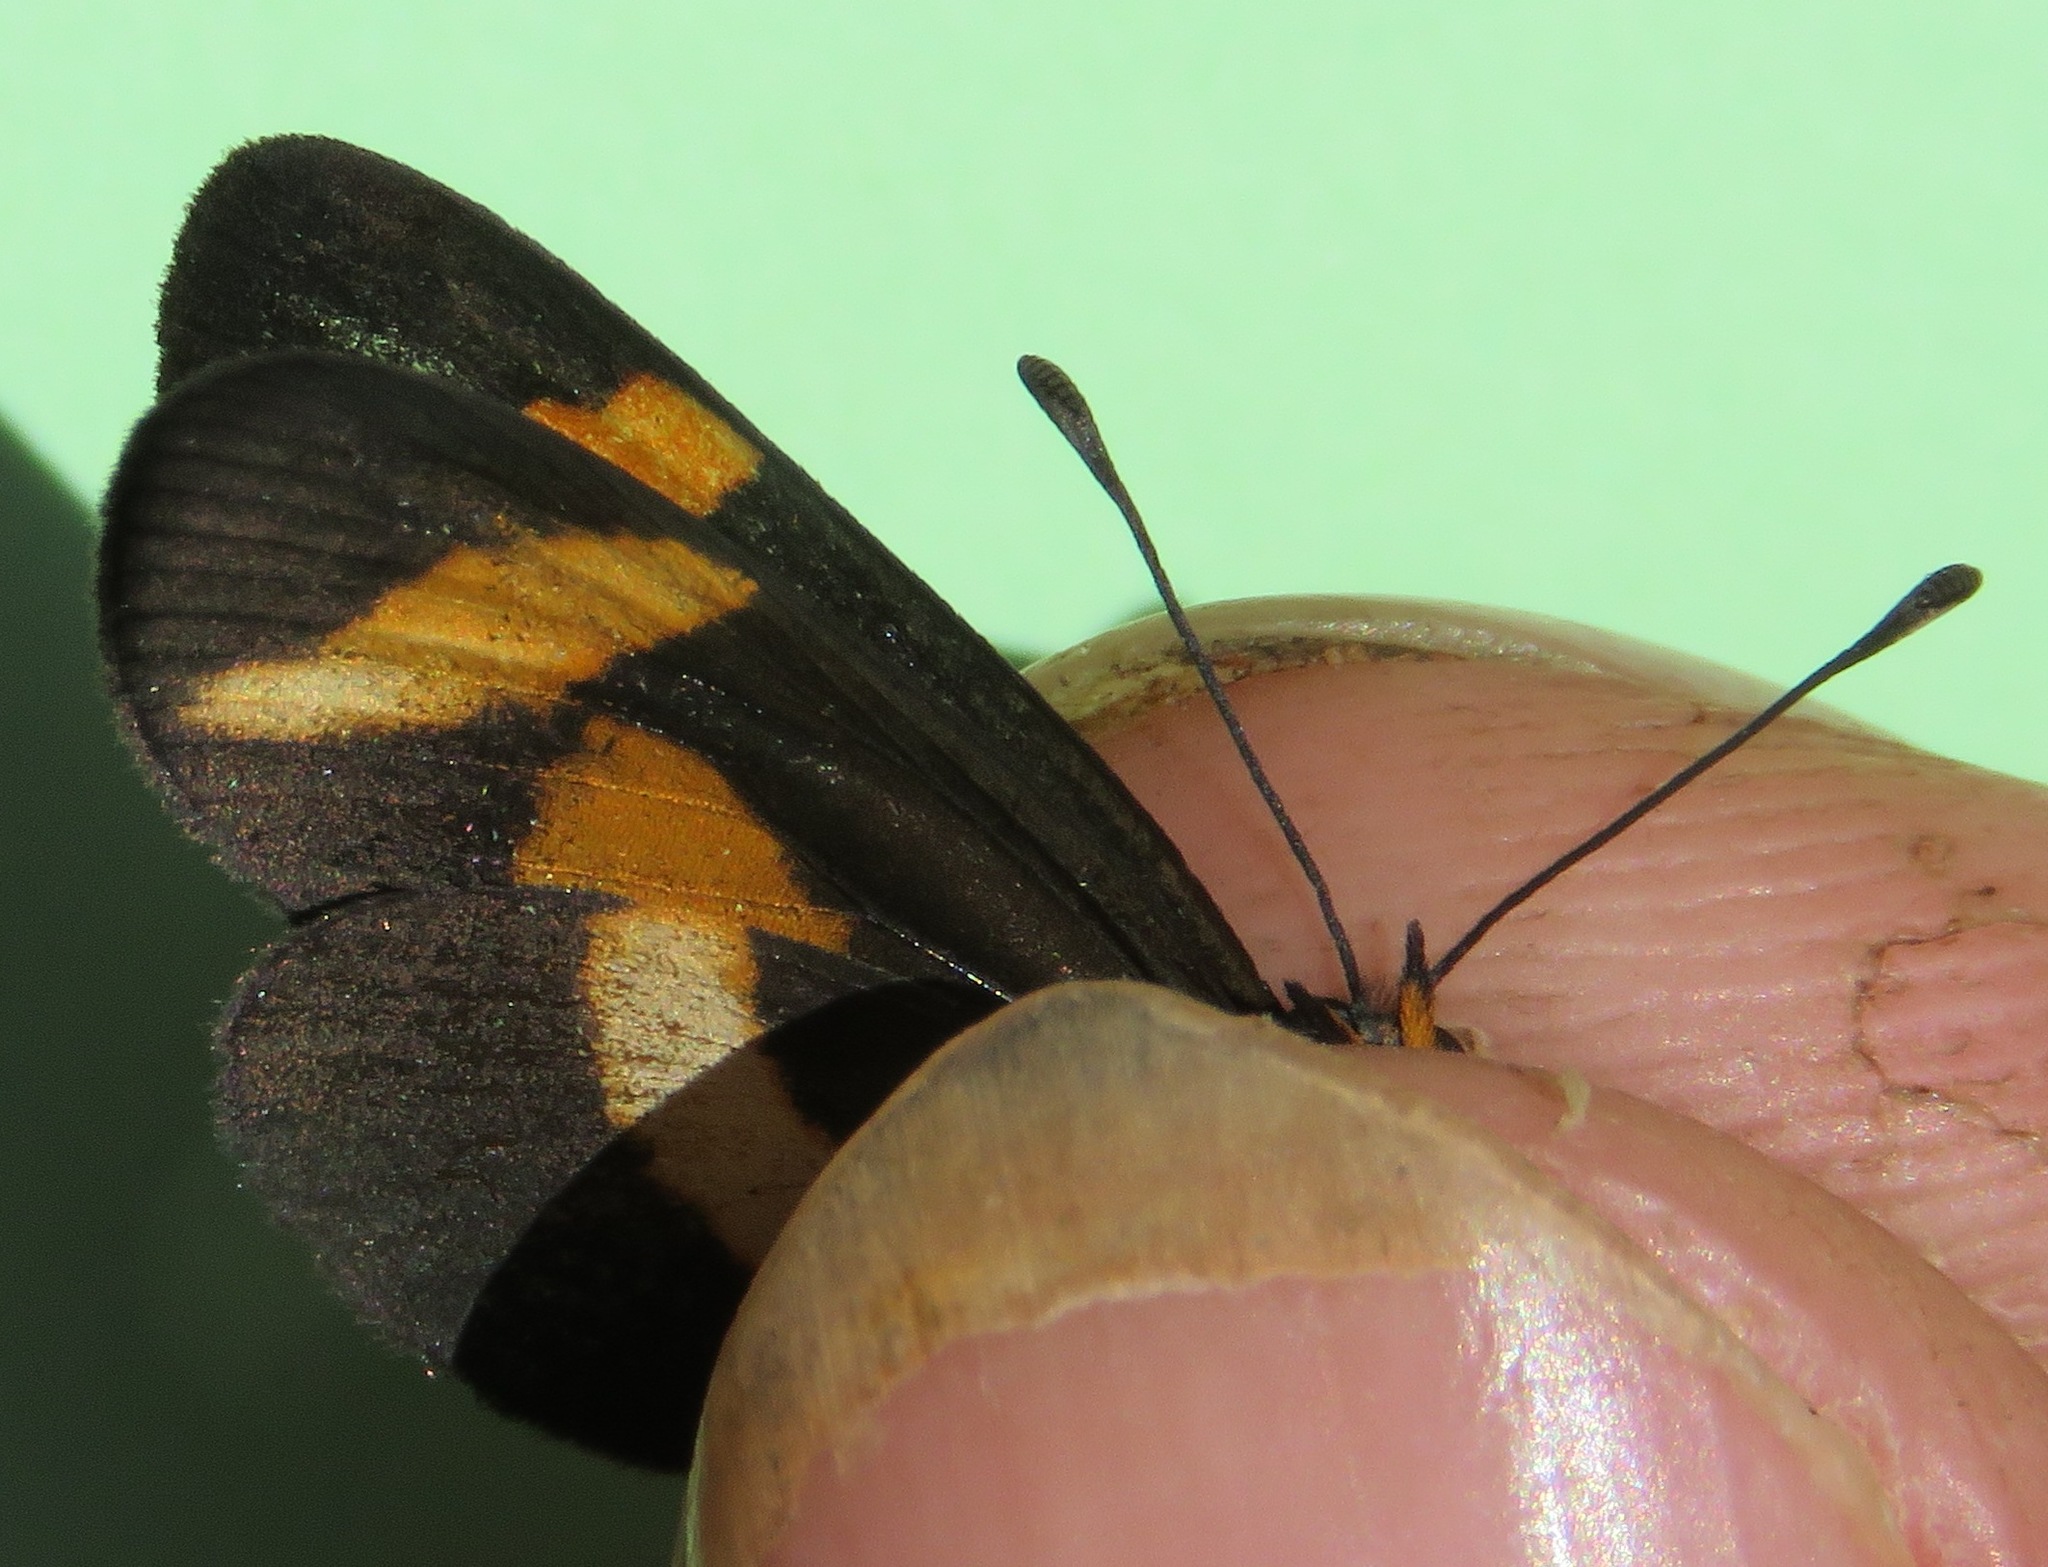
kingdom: Animalia
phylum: Arthropoda
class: Insecta
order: Lepidoptera
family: Nymphalidae
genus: Microtia
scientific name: Microtia elva
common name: Elf
